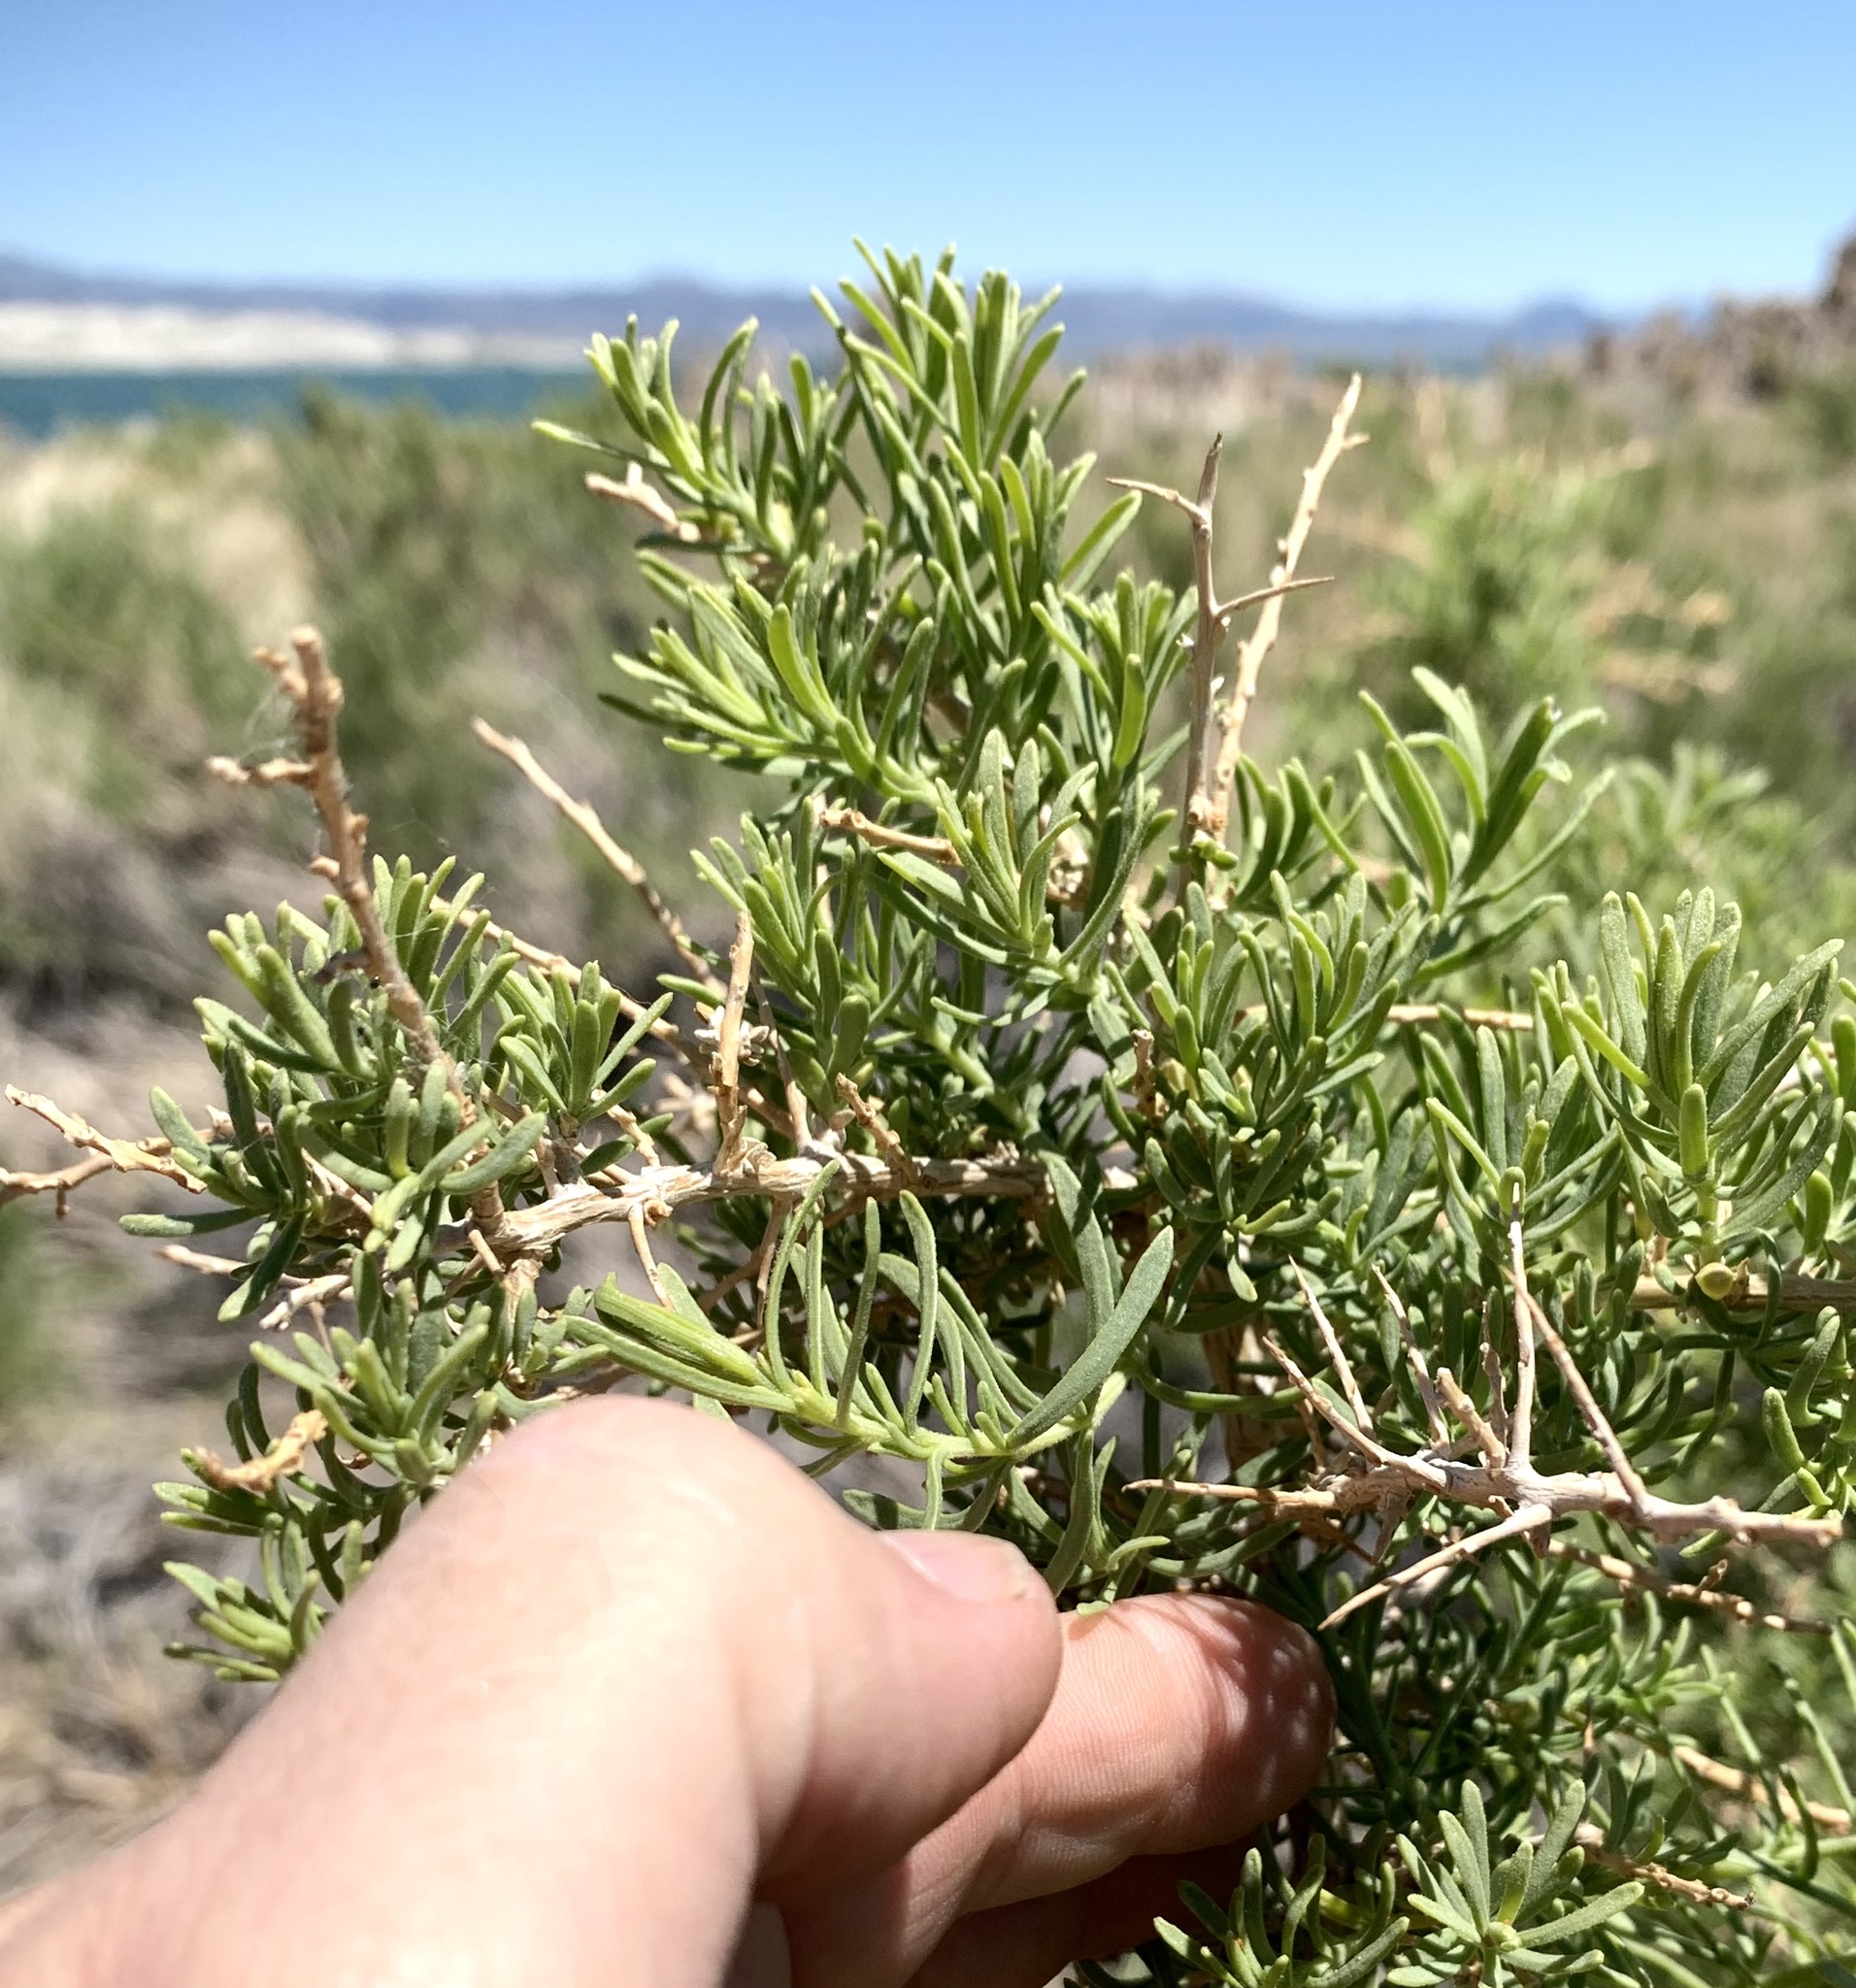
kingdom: Plantae
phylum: Tracheophyta
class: Magnoliopsida
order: Caryophyllales
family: Sarcobataceae
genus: Sarcobatus
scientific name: Sarcobatus vermiculatus
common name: Greasewood
